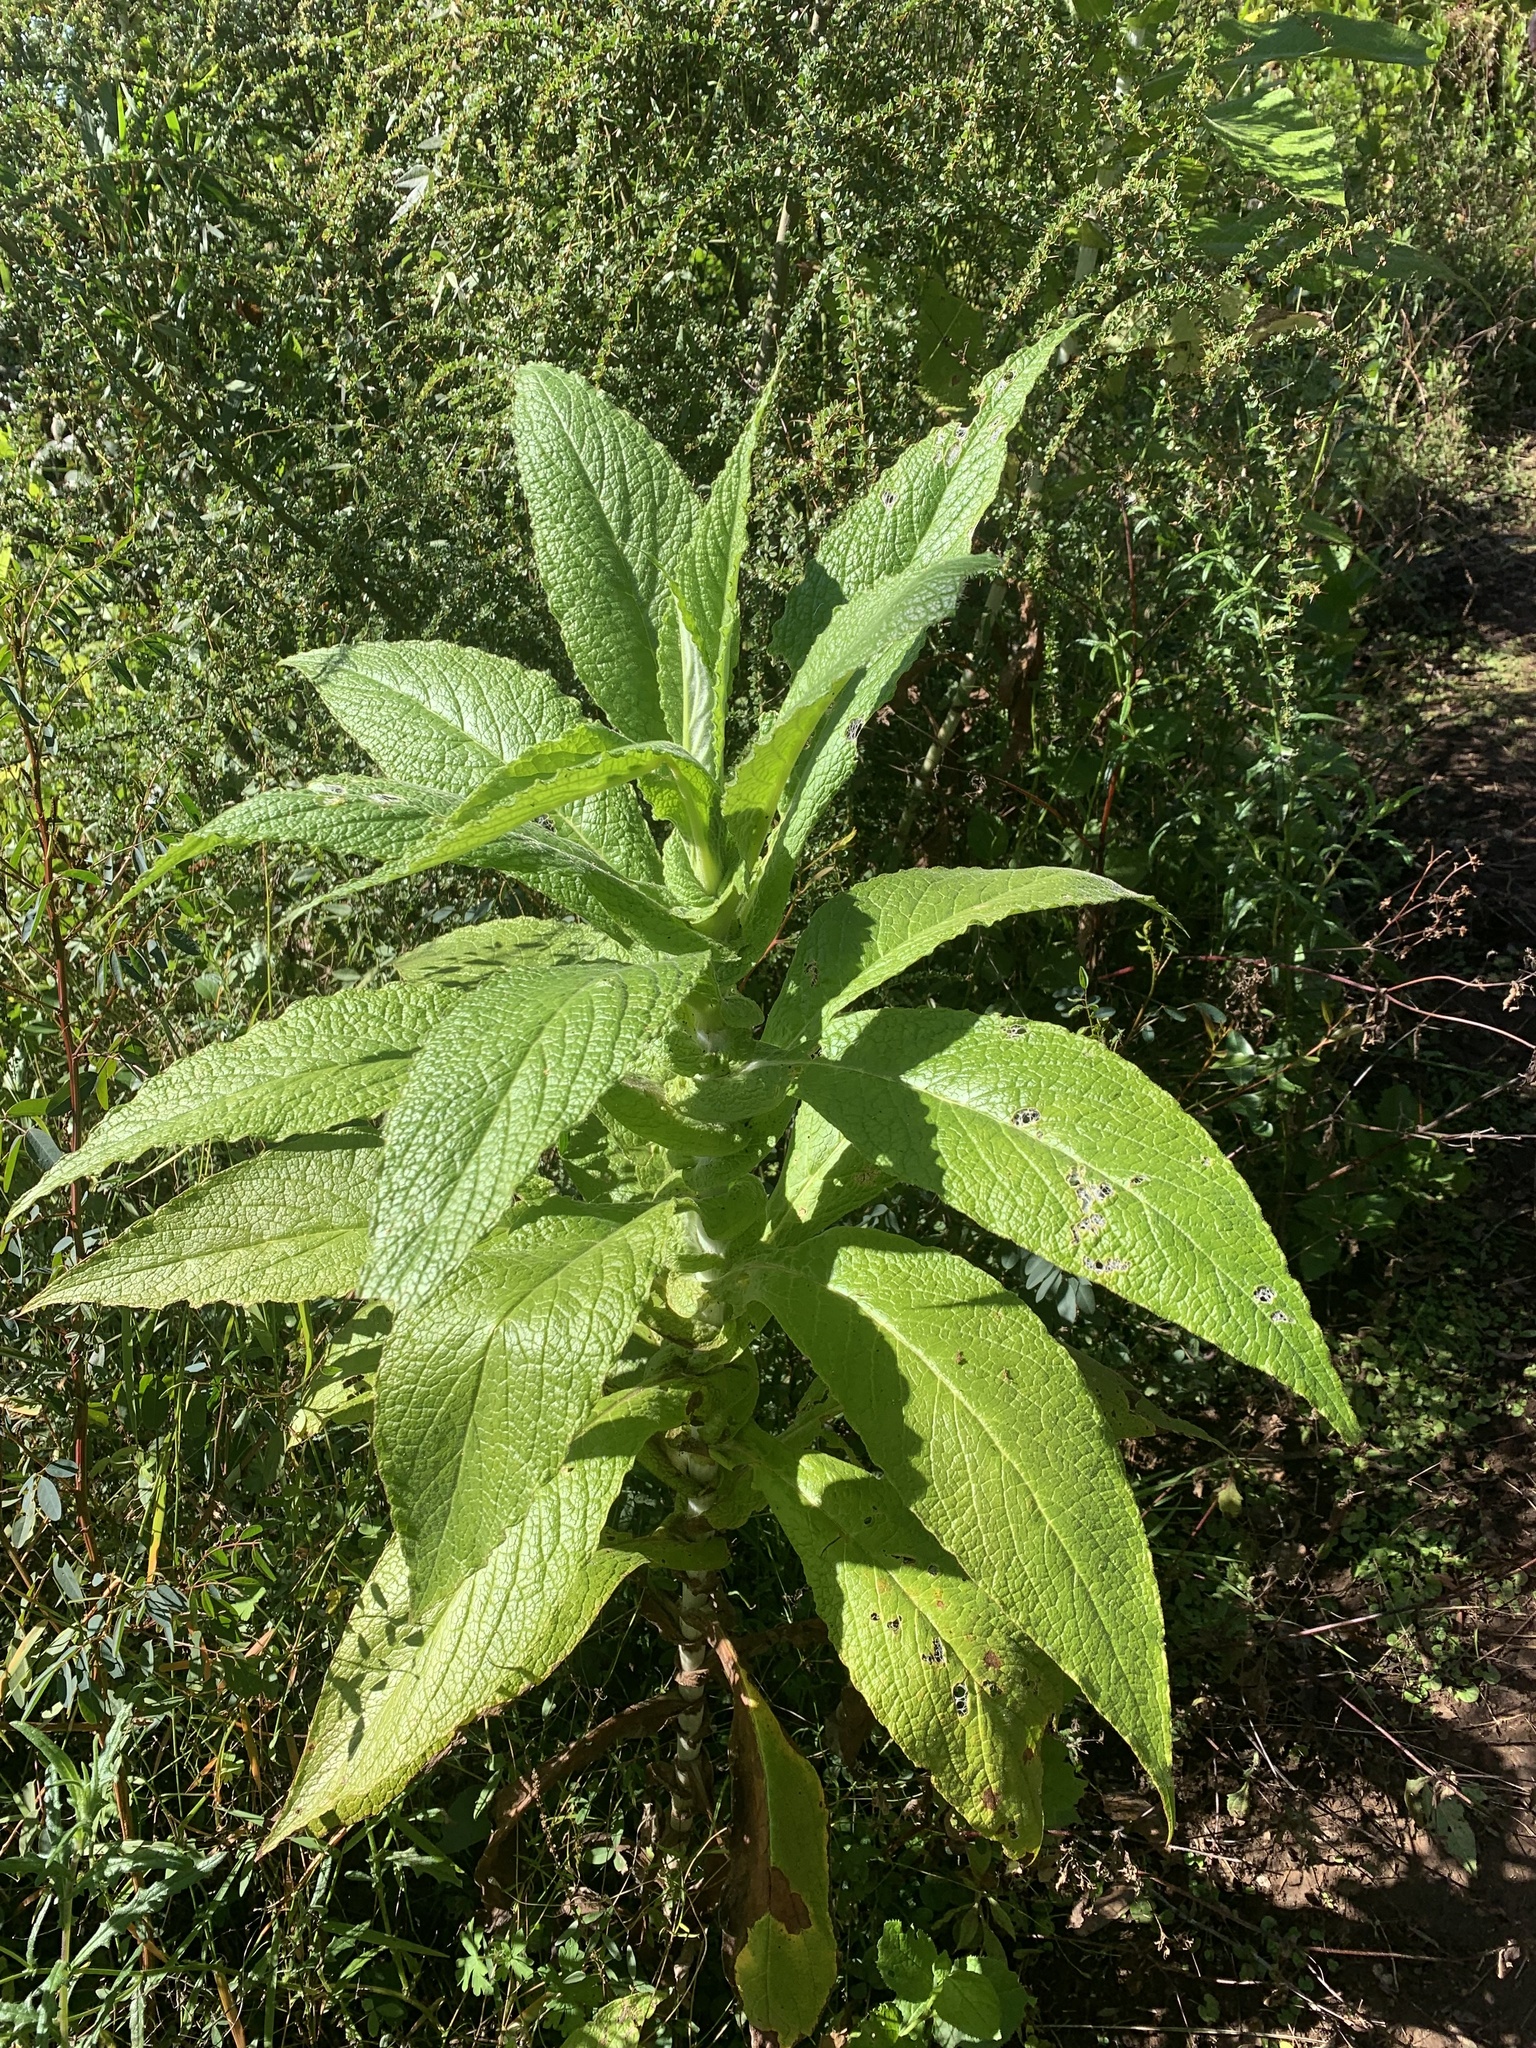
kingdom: Plantae
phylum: Tracheophyta
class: Magnoliopsida
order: Asterales
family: Asteraceae
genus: Calomeria
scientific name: Calomeria amaranthoides
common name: Incenseplant
